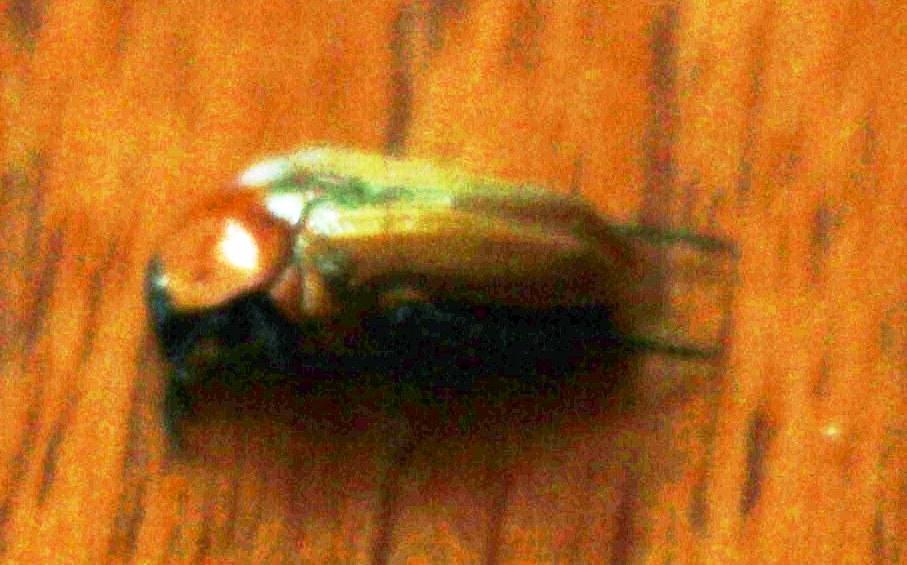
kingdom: Animalia
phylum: Arthropoda
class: Insecta
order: Coleoptera
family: Scarabaeidae
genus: Leucocelis
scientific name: Leucocelis rubra
